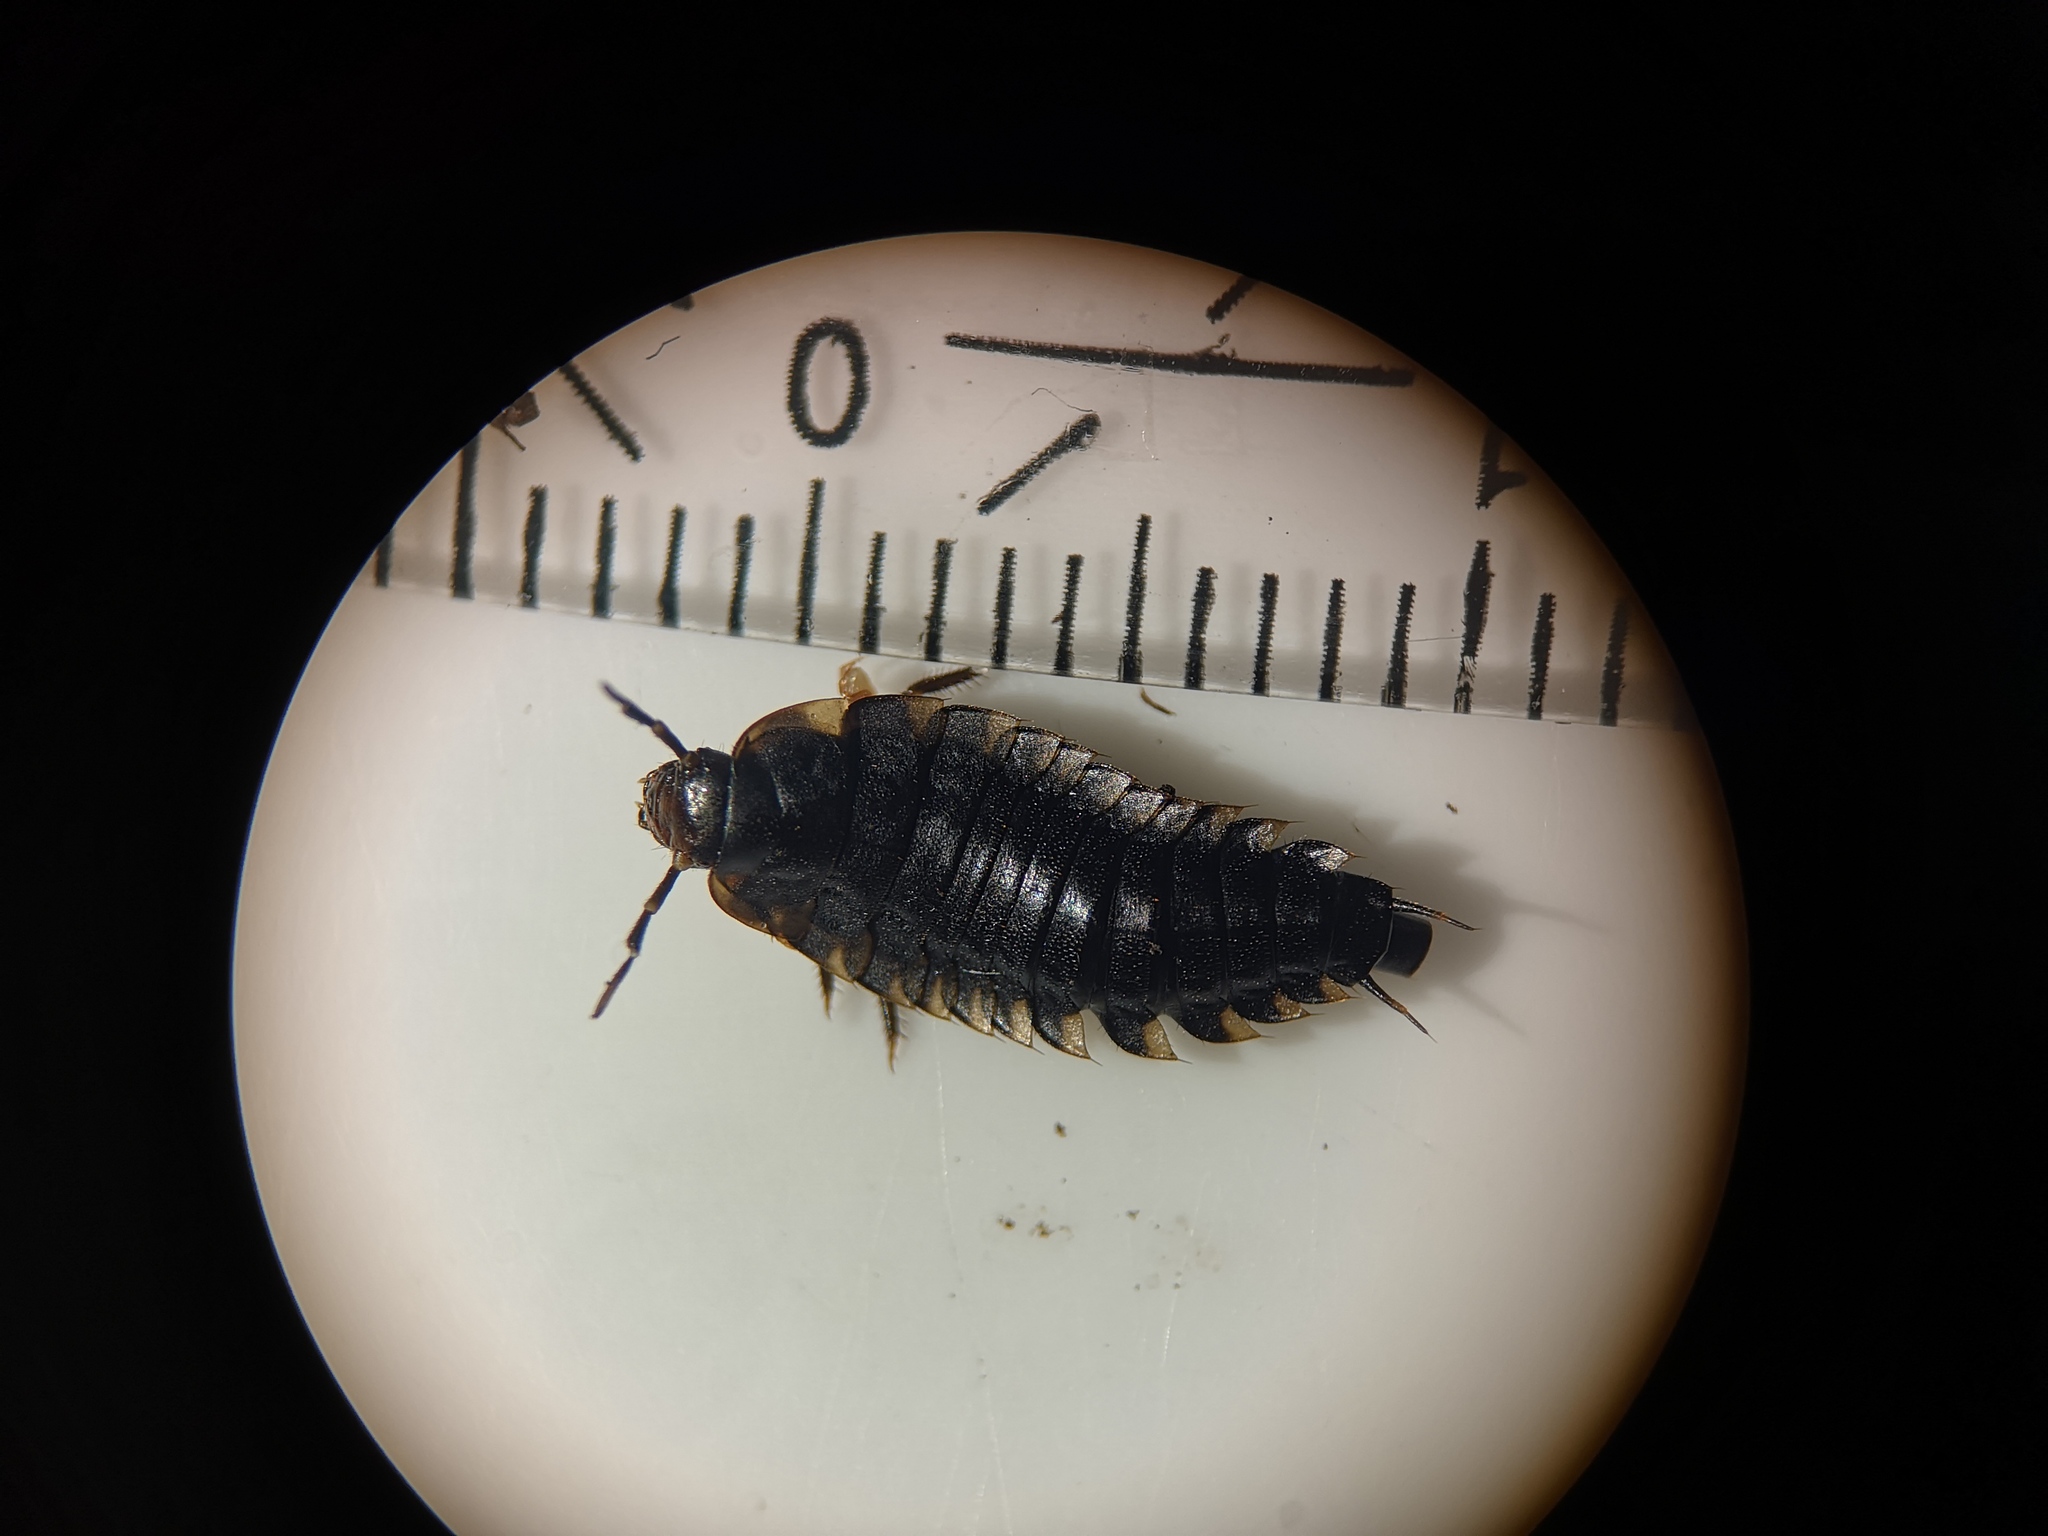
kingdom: Animalia
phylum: Arthropoda
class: Insecta
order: Coleoptera
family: Staphylinidae
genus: Silpha
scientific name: Silpha tristis
